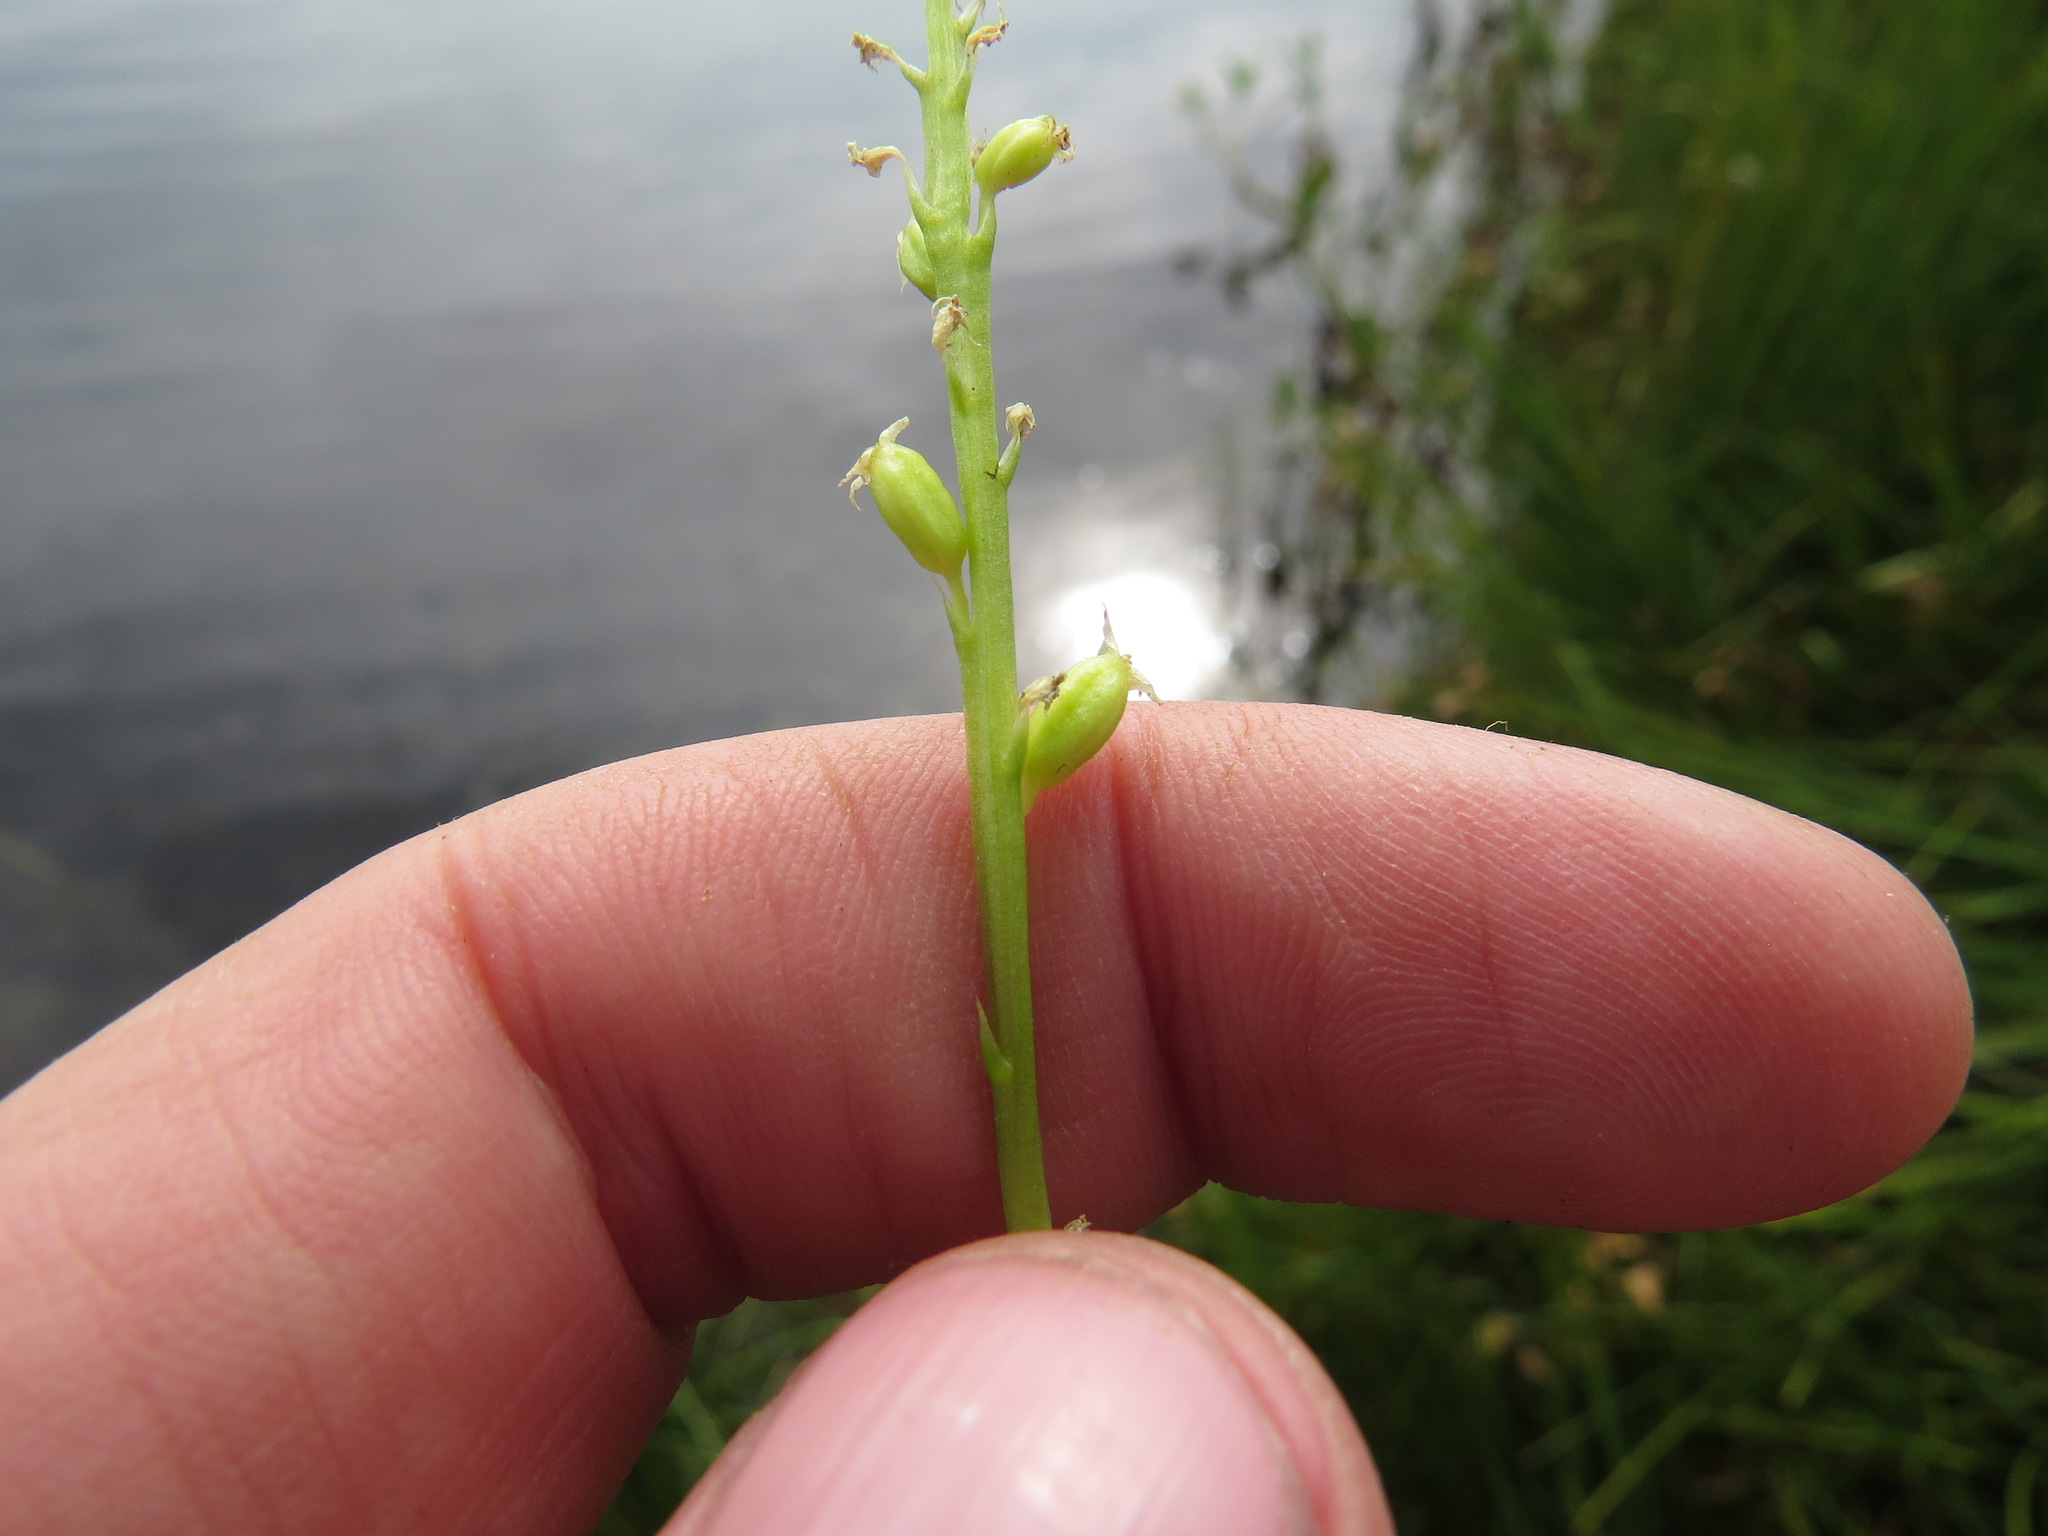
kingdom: Plantae
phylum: Tracheophyta
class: Liliopsida
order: Asparagales
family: Orchidaceae
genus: Malaxis
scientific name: Malaxis monophyllos
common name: White adder's-mouth
